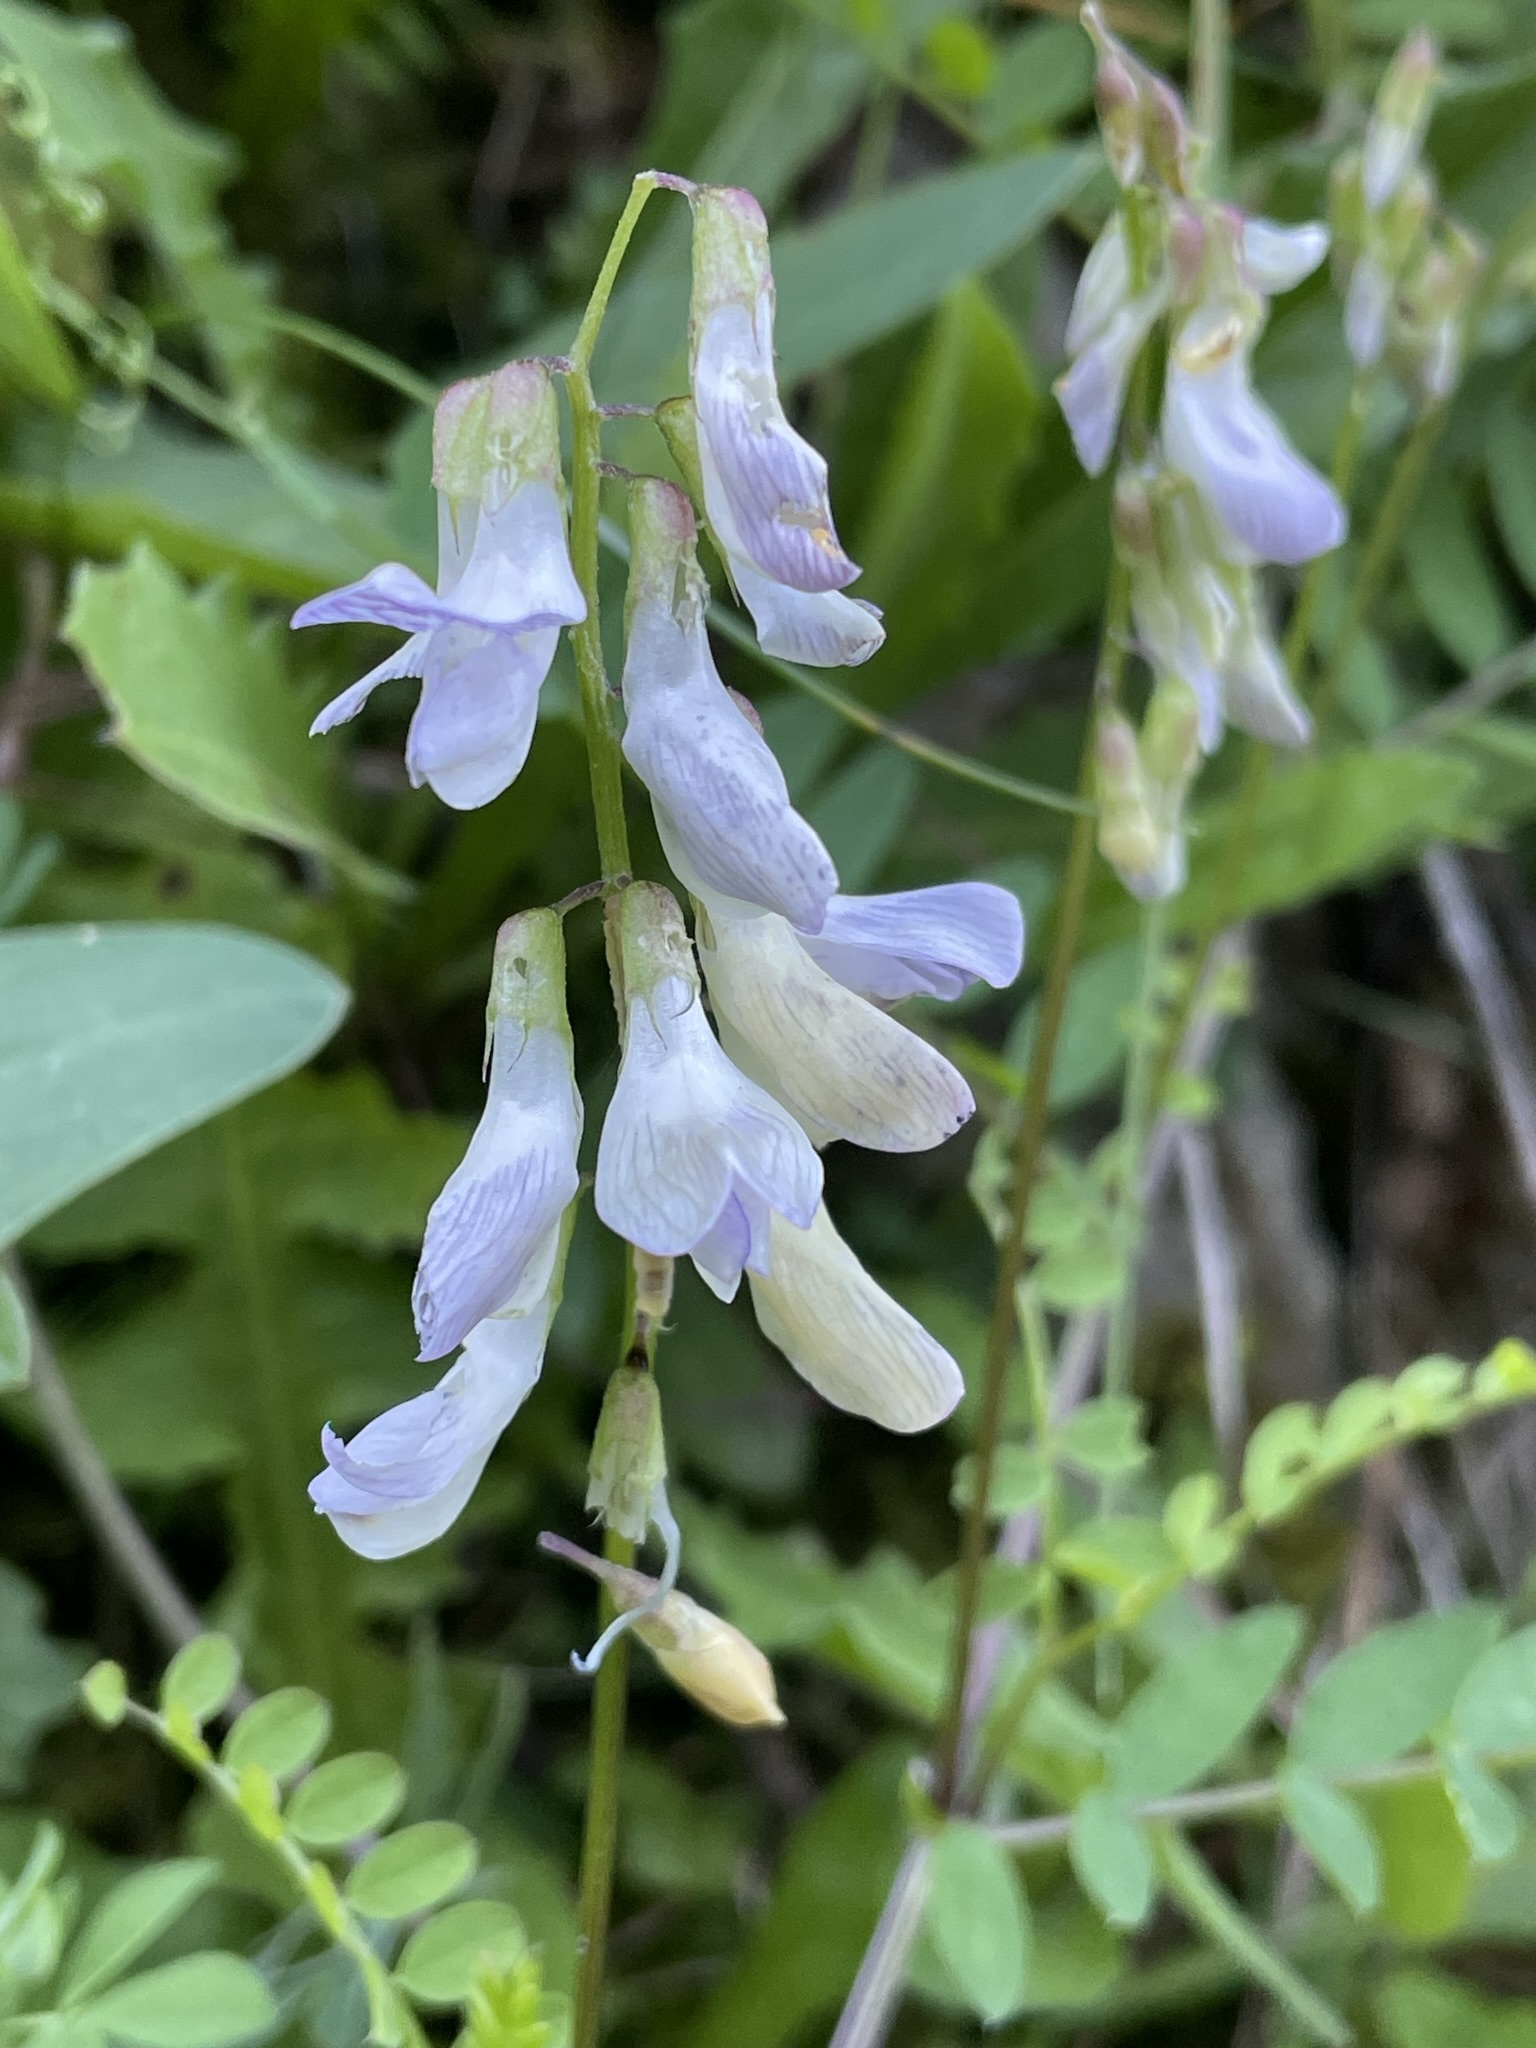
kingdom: Plantae
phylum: Tracheophyta
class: Magnoliopsida
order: Fabales
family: Fabaceae
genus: Vicia
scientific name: Vicia sylvatica
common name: Wood vetch
